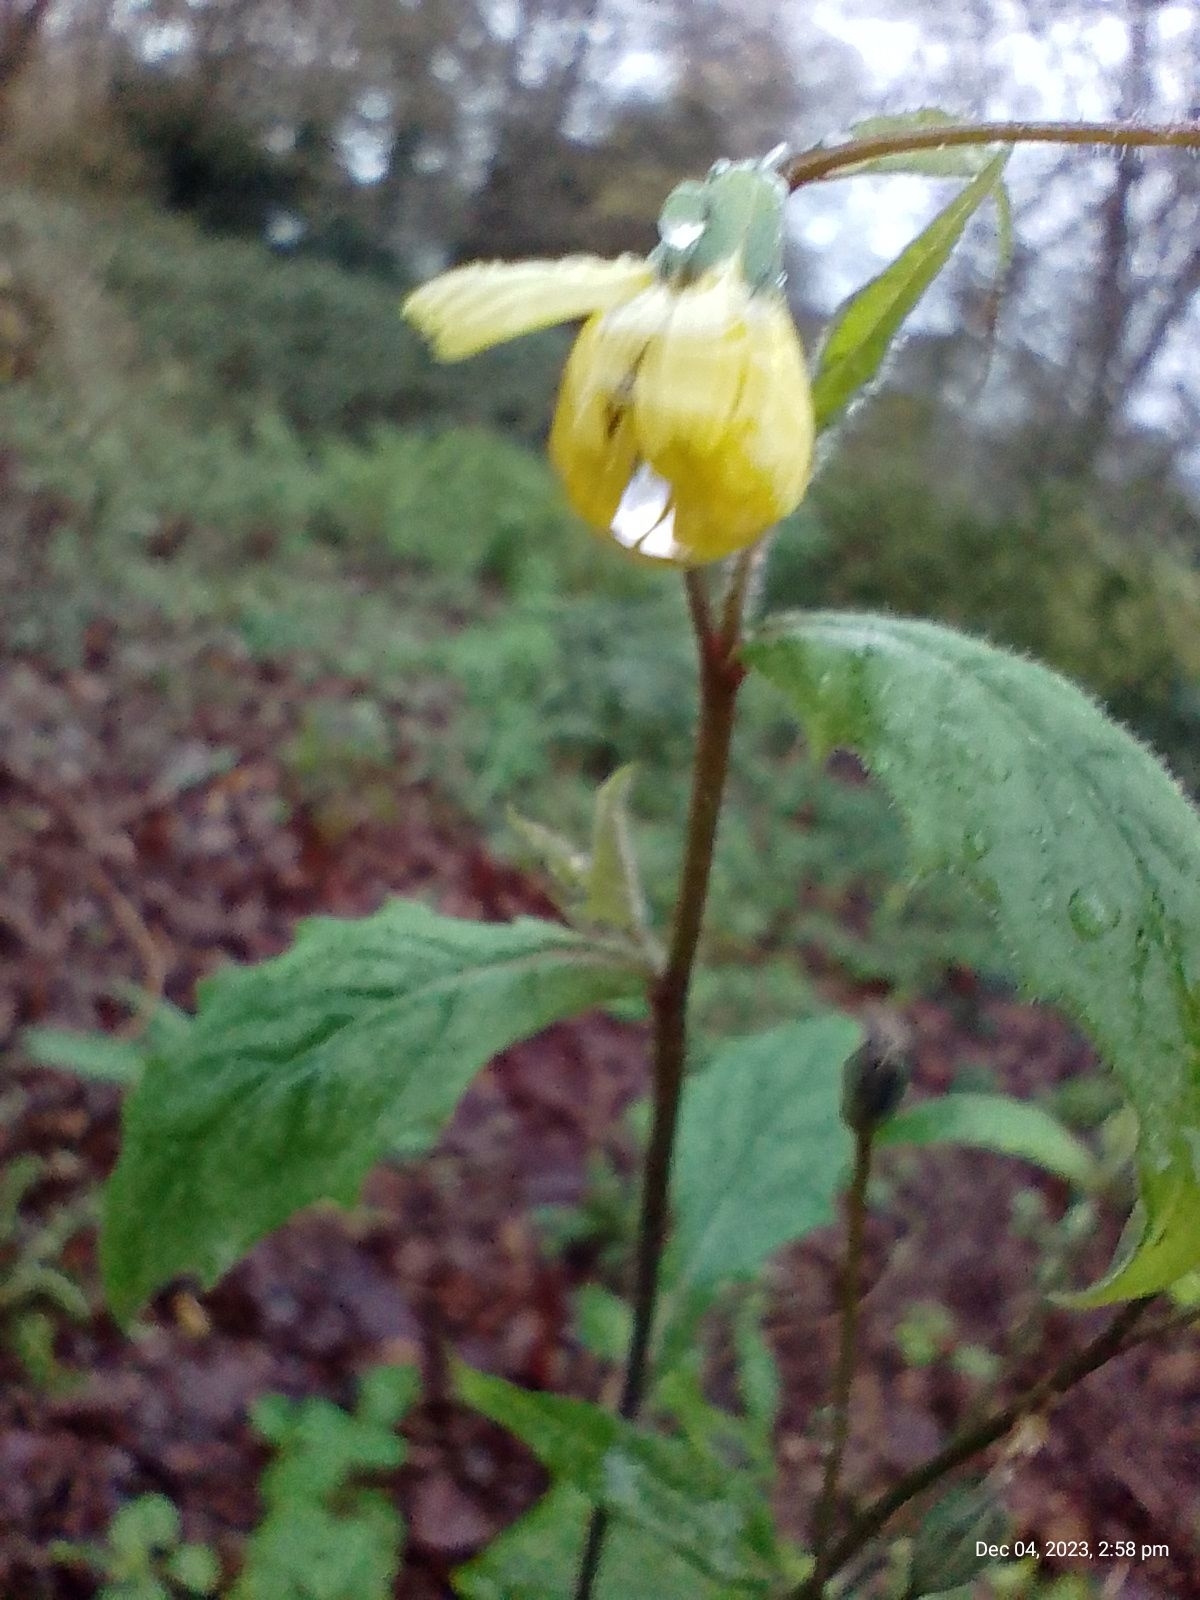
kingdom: Plantae
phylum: Tracheophyta
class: Magnoliopsida
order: Asterales
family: Asteraceae
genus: Lapsana
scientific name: Lapsana communis
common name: Nipplewort
